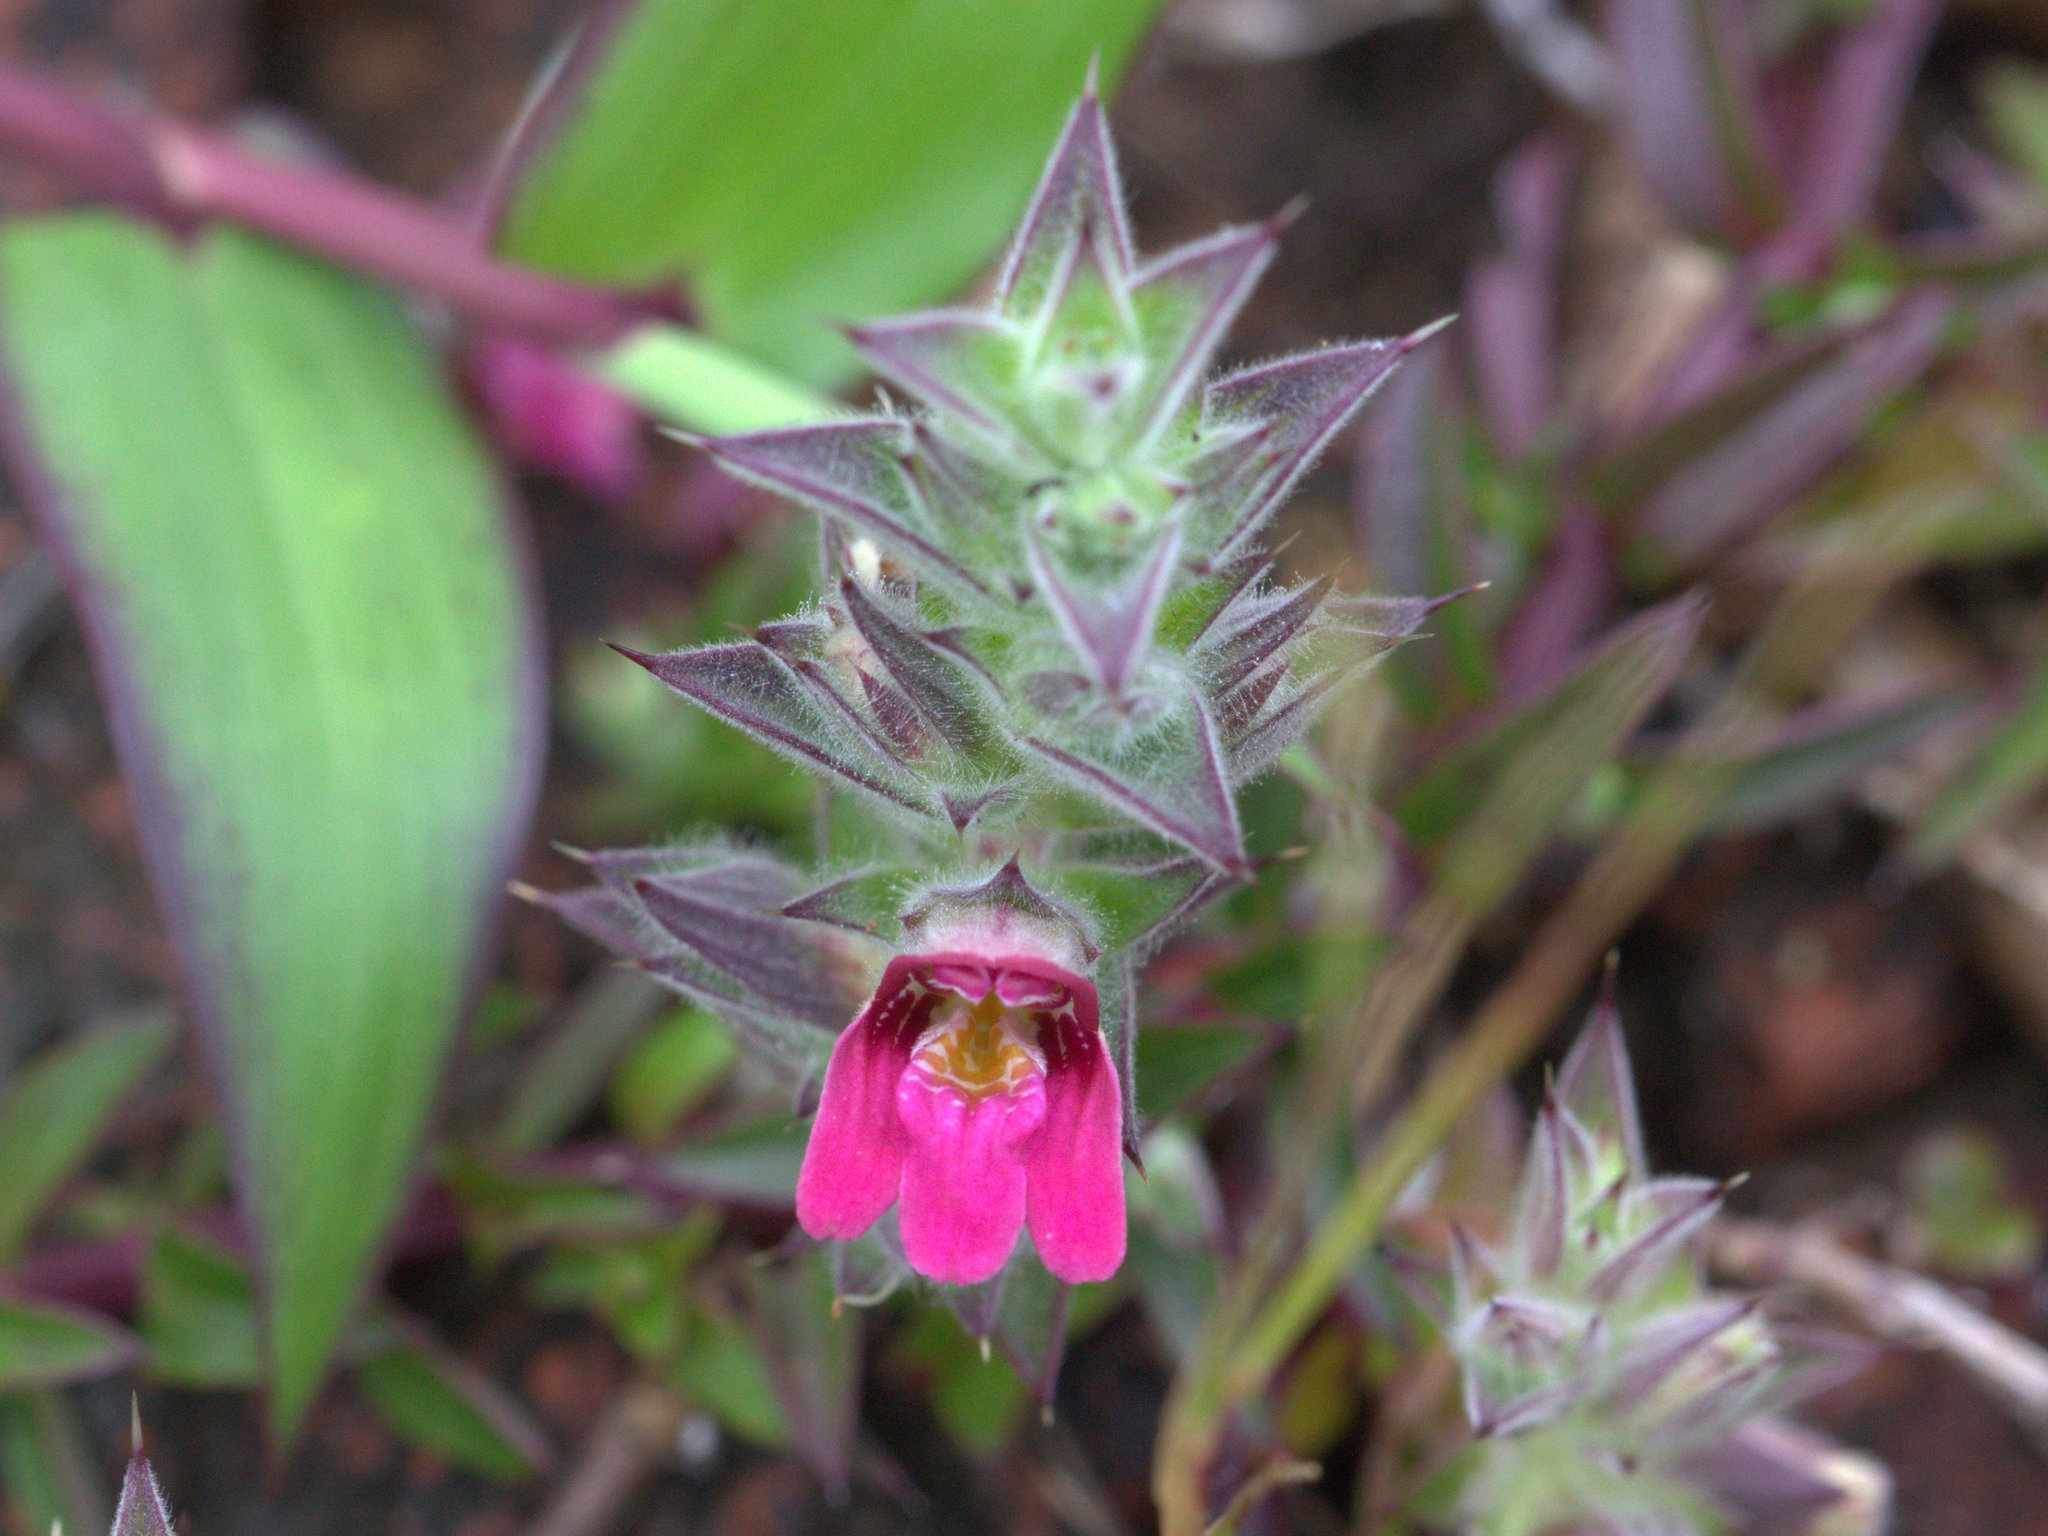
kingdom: Plantae
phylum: Tracheophyta
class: Magnoliopsida
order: Lamiales
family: Acanthaceae
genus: Lepidagathis
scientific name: Lepidagathis keralensis
